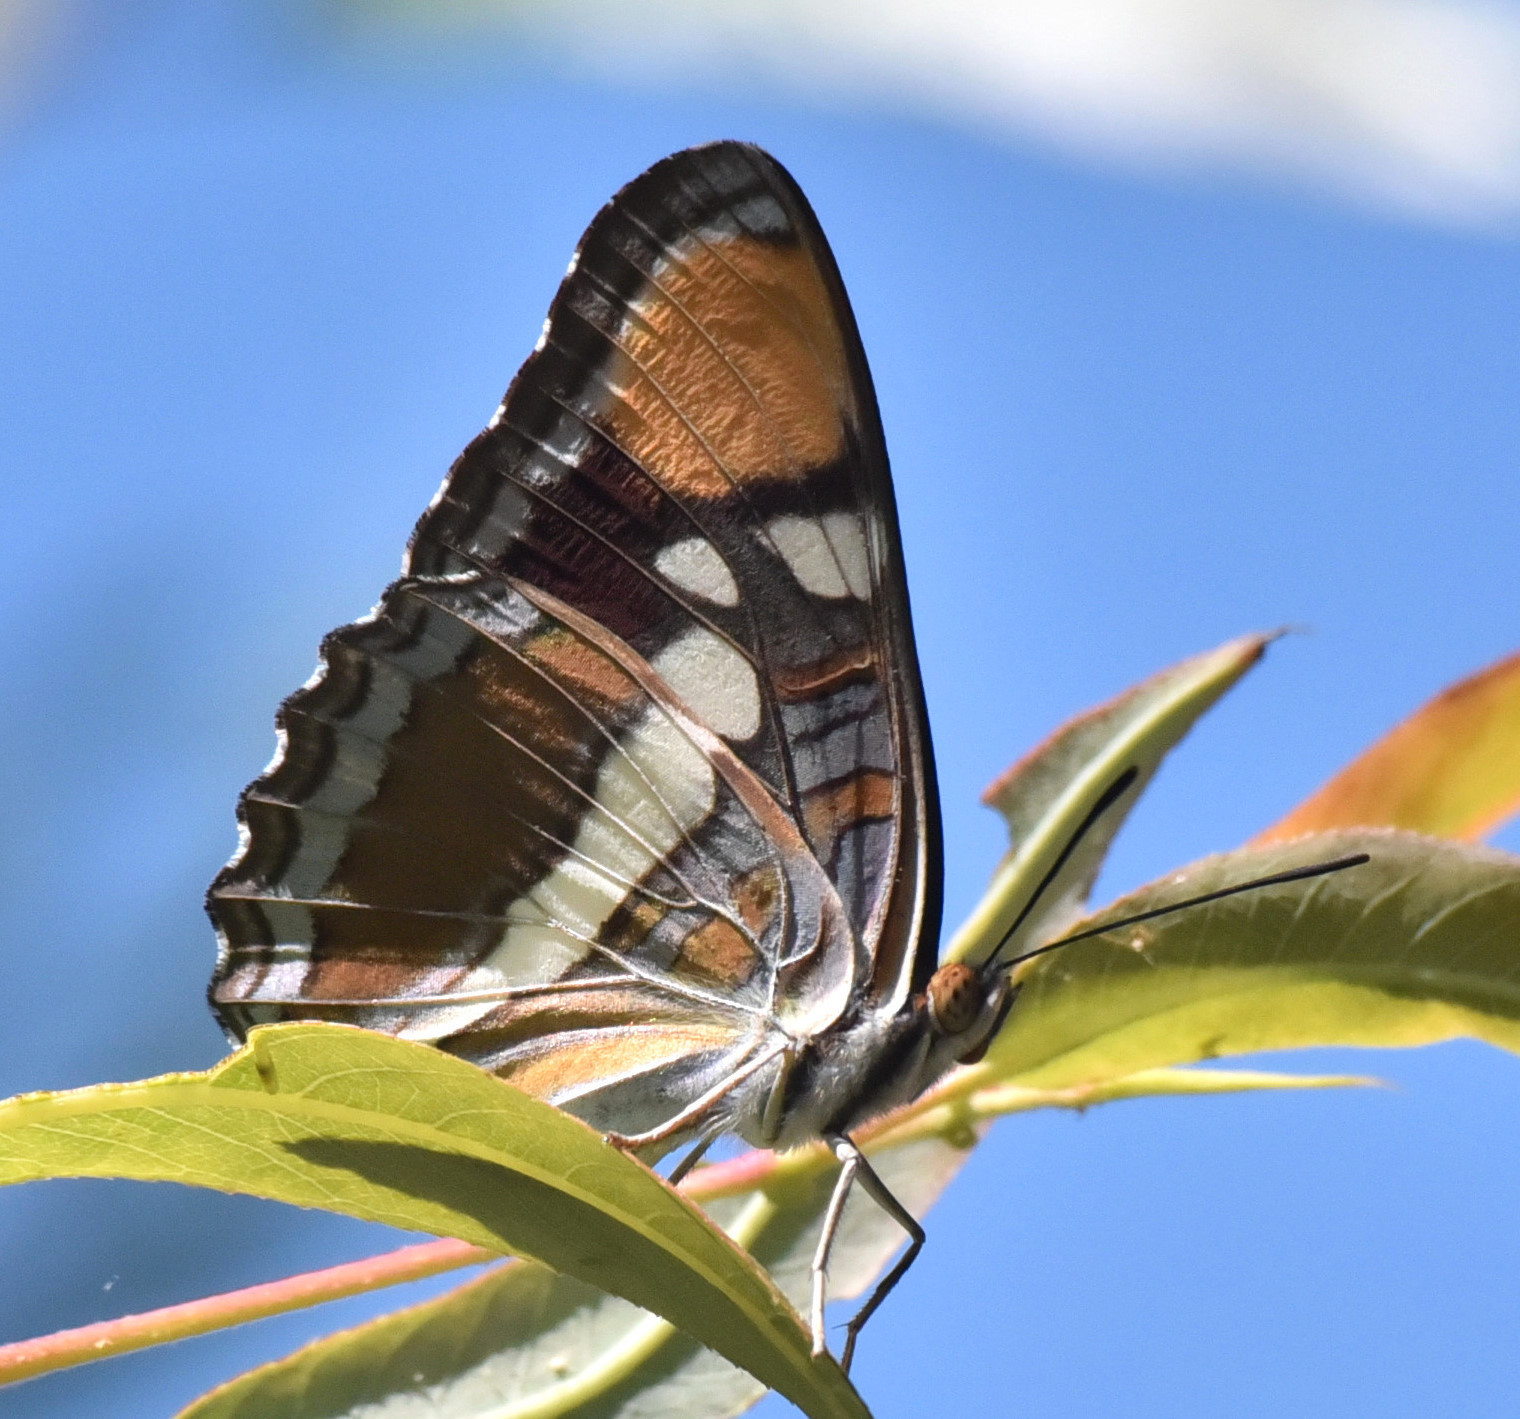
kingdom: Animalia
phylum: Arthropoda
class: Insecta
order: Lepidoptera
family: Nymphalidae
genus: Limenitis
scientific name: Limenitis bredowii
